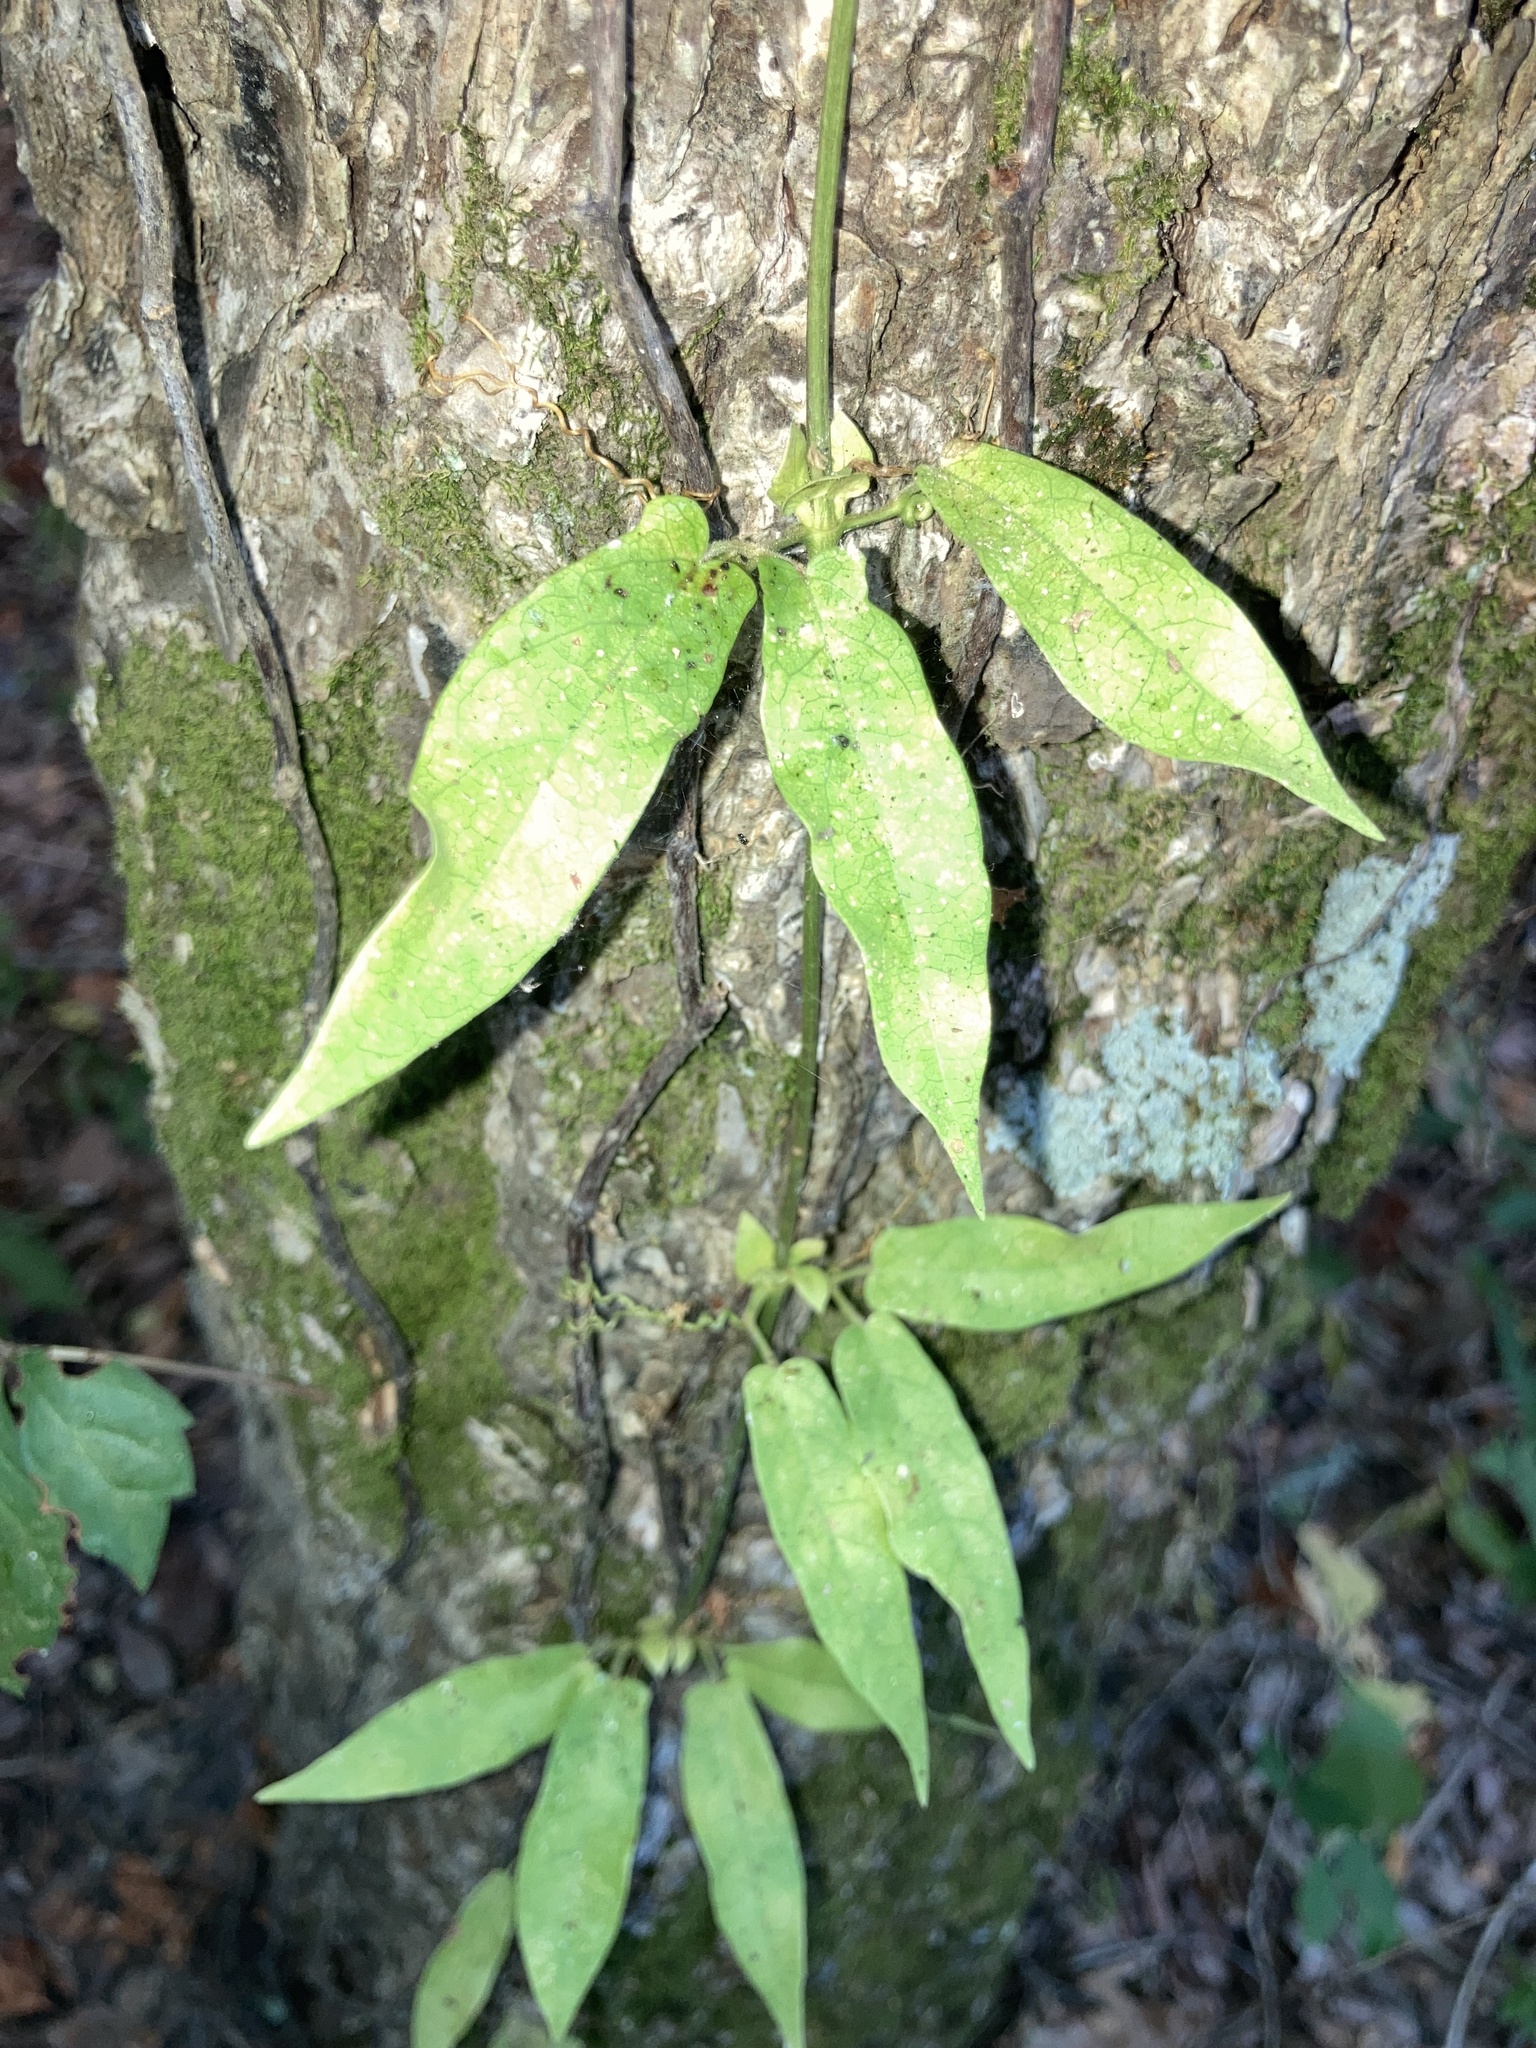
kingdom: Plantae
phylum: Tracheophyta
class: Magnoliopsida
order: Lamiales
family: Bignoniaceae
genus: Bignonia
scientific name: Bignonia capreolata
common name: Crossvine
